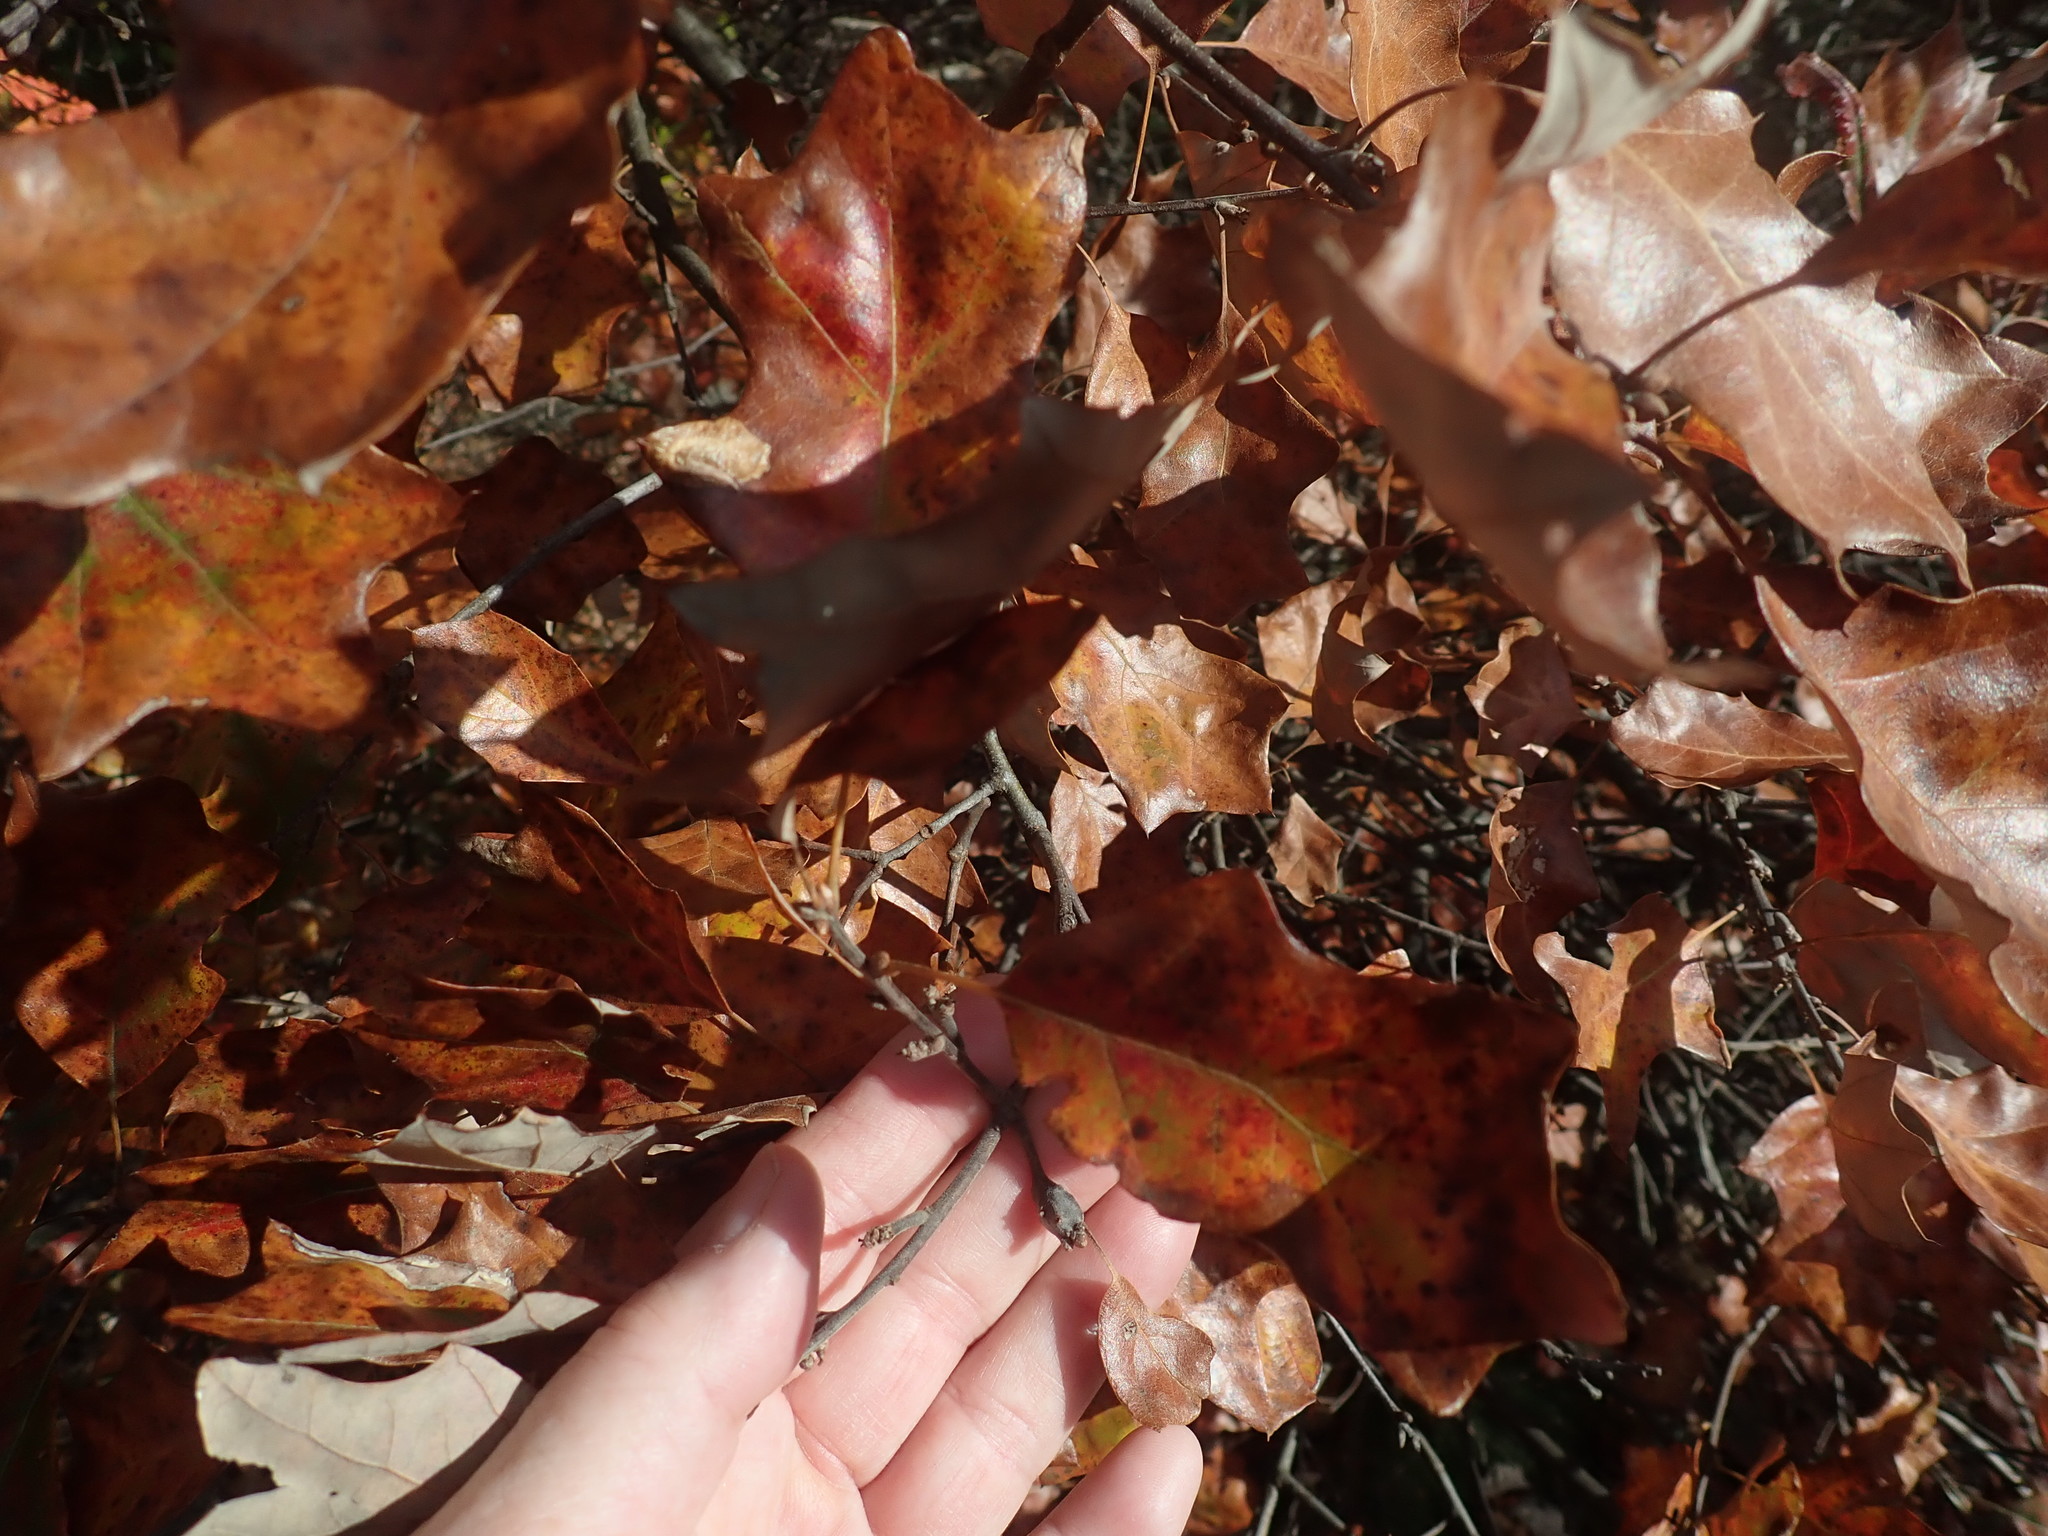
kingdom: Plantae
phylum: Tracheophyta
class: Magnoliopsida
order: Fagales
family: Fagaceae
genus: Quercus
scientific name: Quercus ilicifolia
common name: Bear oak
